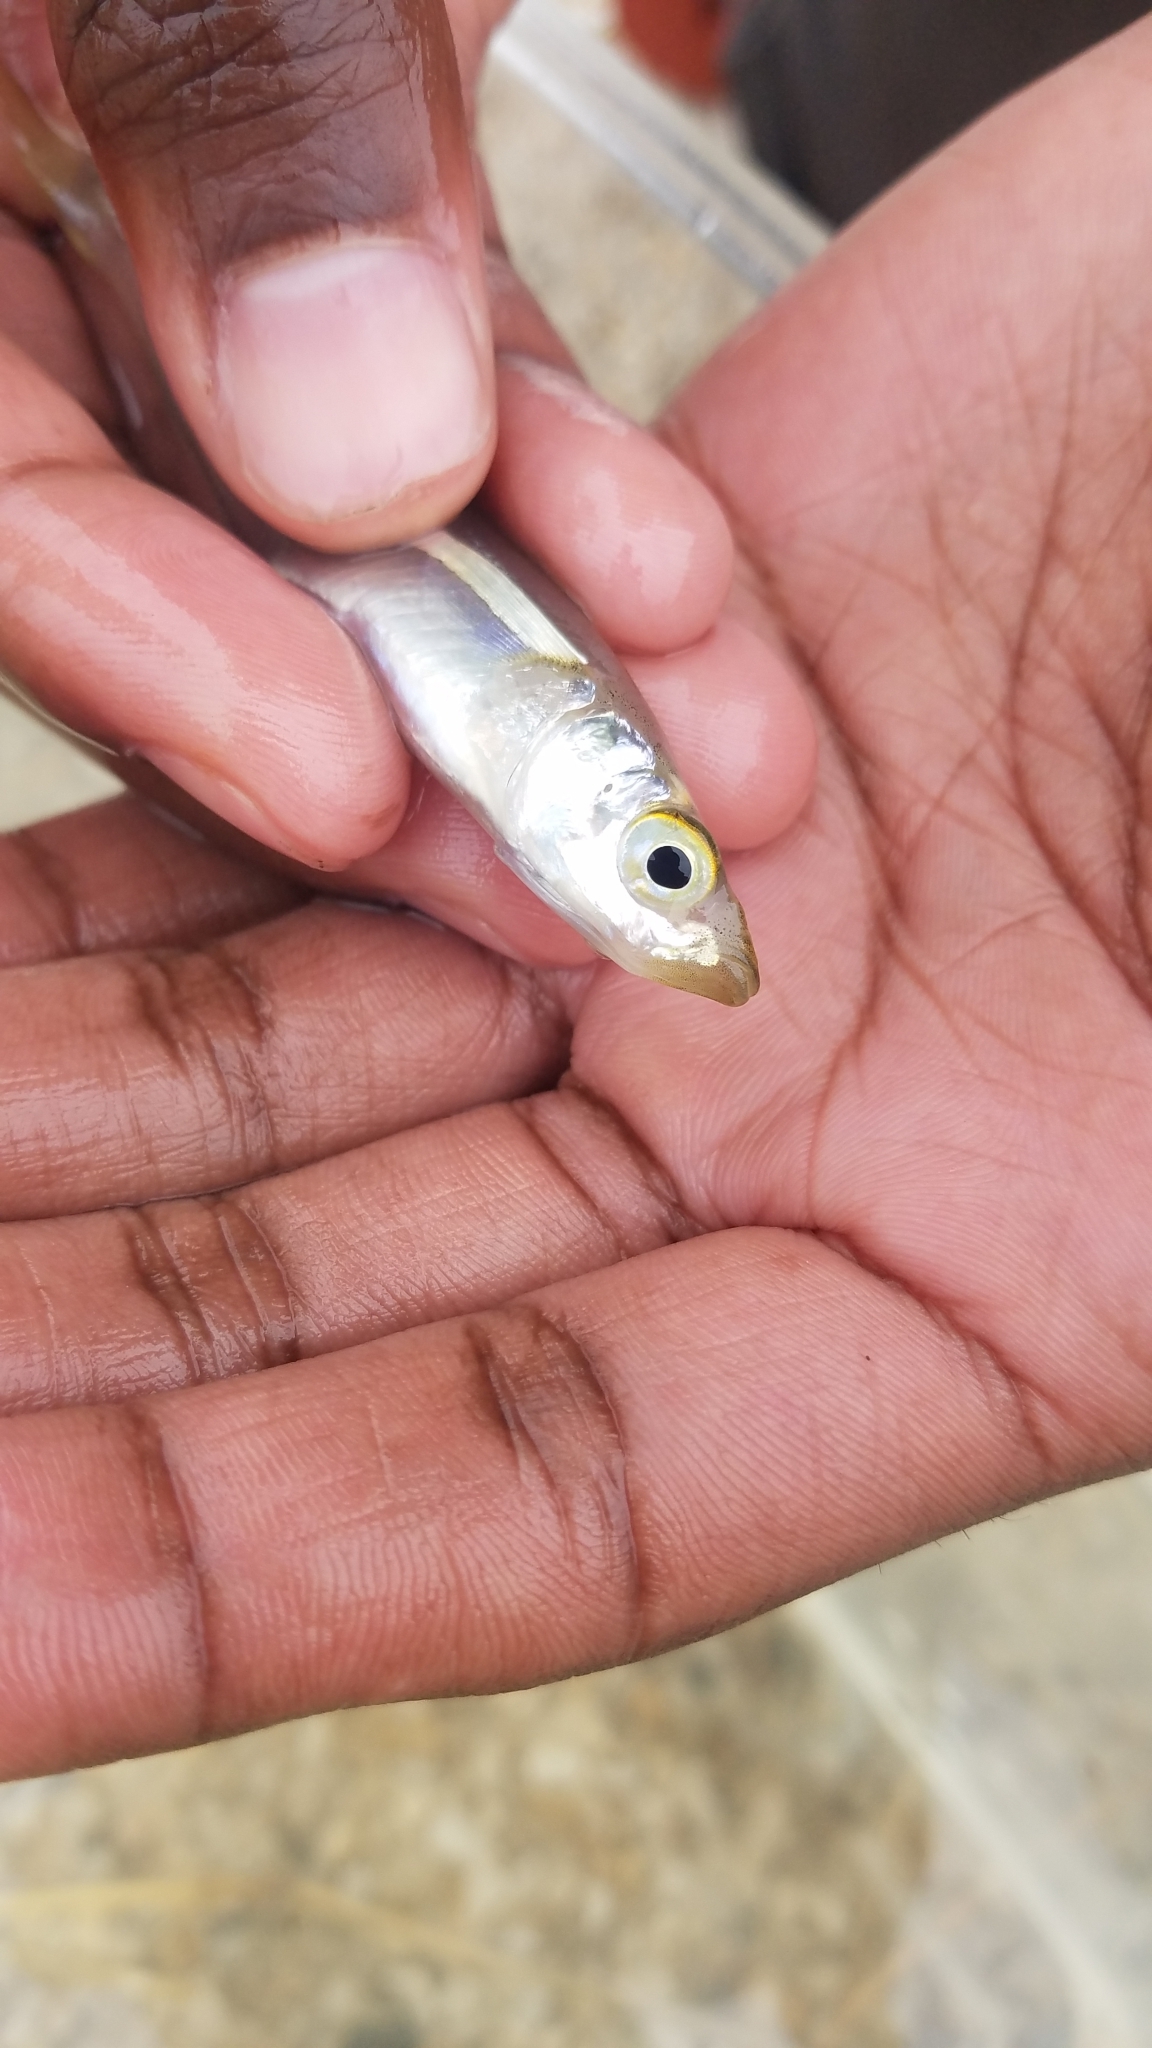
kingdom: Animalia
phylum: Chordata
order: Atheriniformes
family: Atherinopsidae
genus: Menidia
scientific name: Menidia menidia
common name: Atlantic silverside
